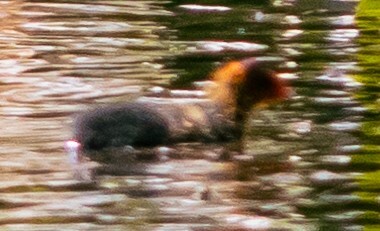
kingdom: Animalia
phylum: Chordata
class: Aves
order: Gruiformes
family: Rallidae
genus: Fulica
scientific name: Fulica atra
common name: Eurasian coot
